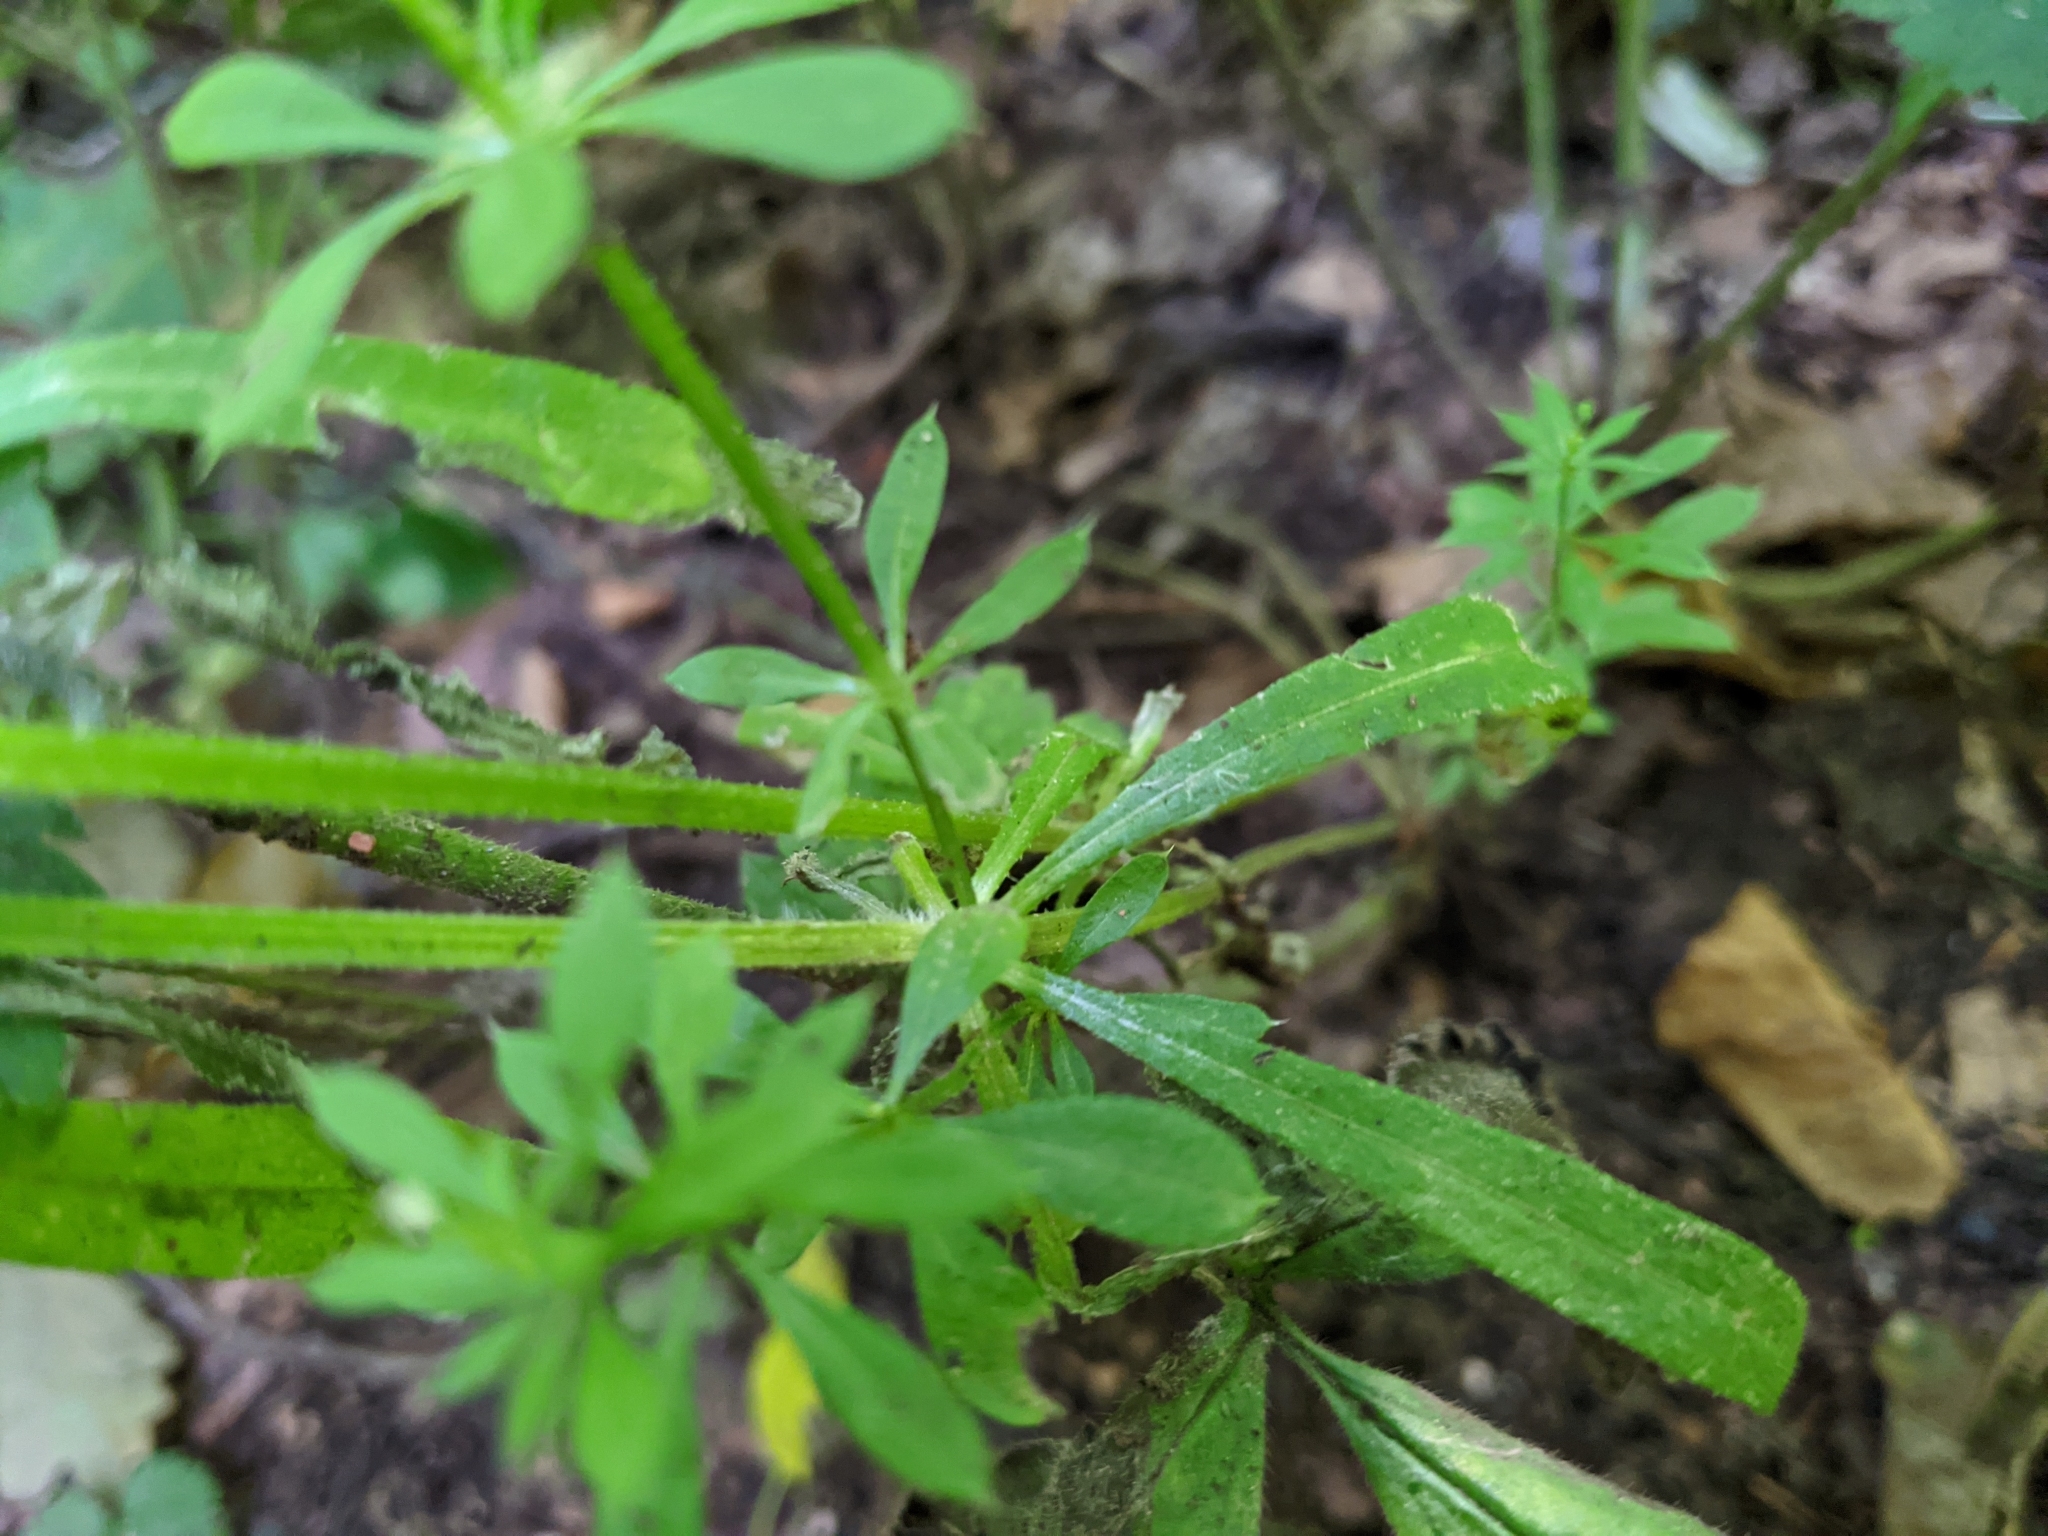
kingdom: Plantae
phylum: Tracheophyta
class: Magnoliopsida
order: Gentianales
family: Rubiaceae
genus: Galium
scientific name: Galium aparine
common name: Cleavers
